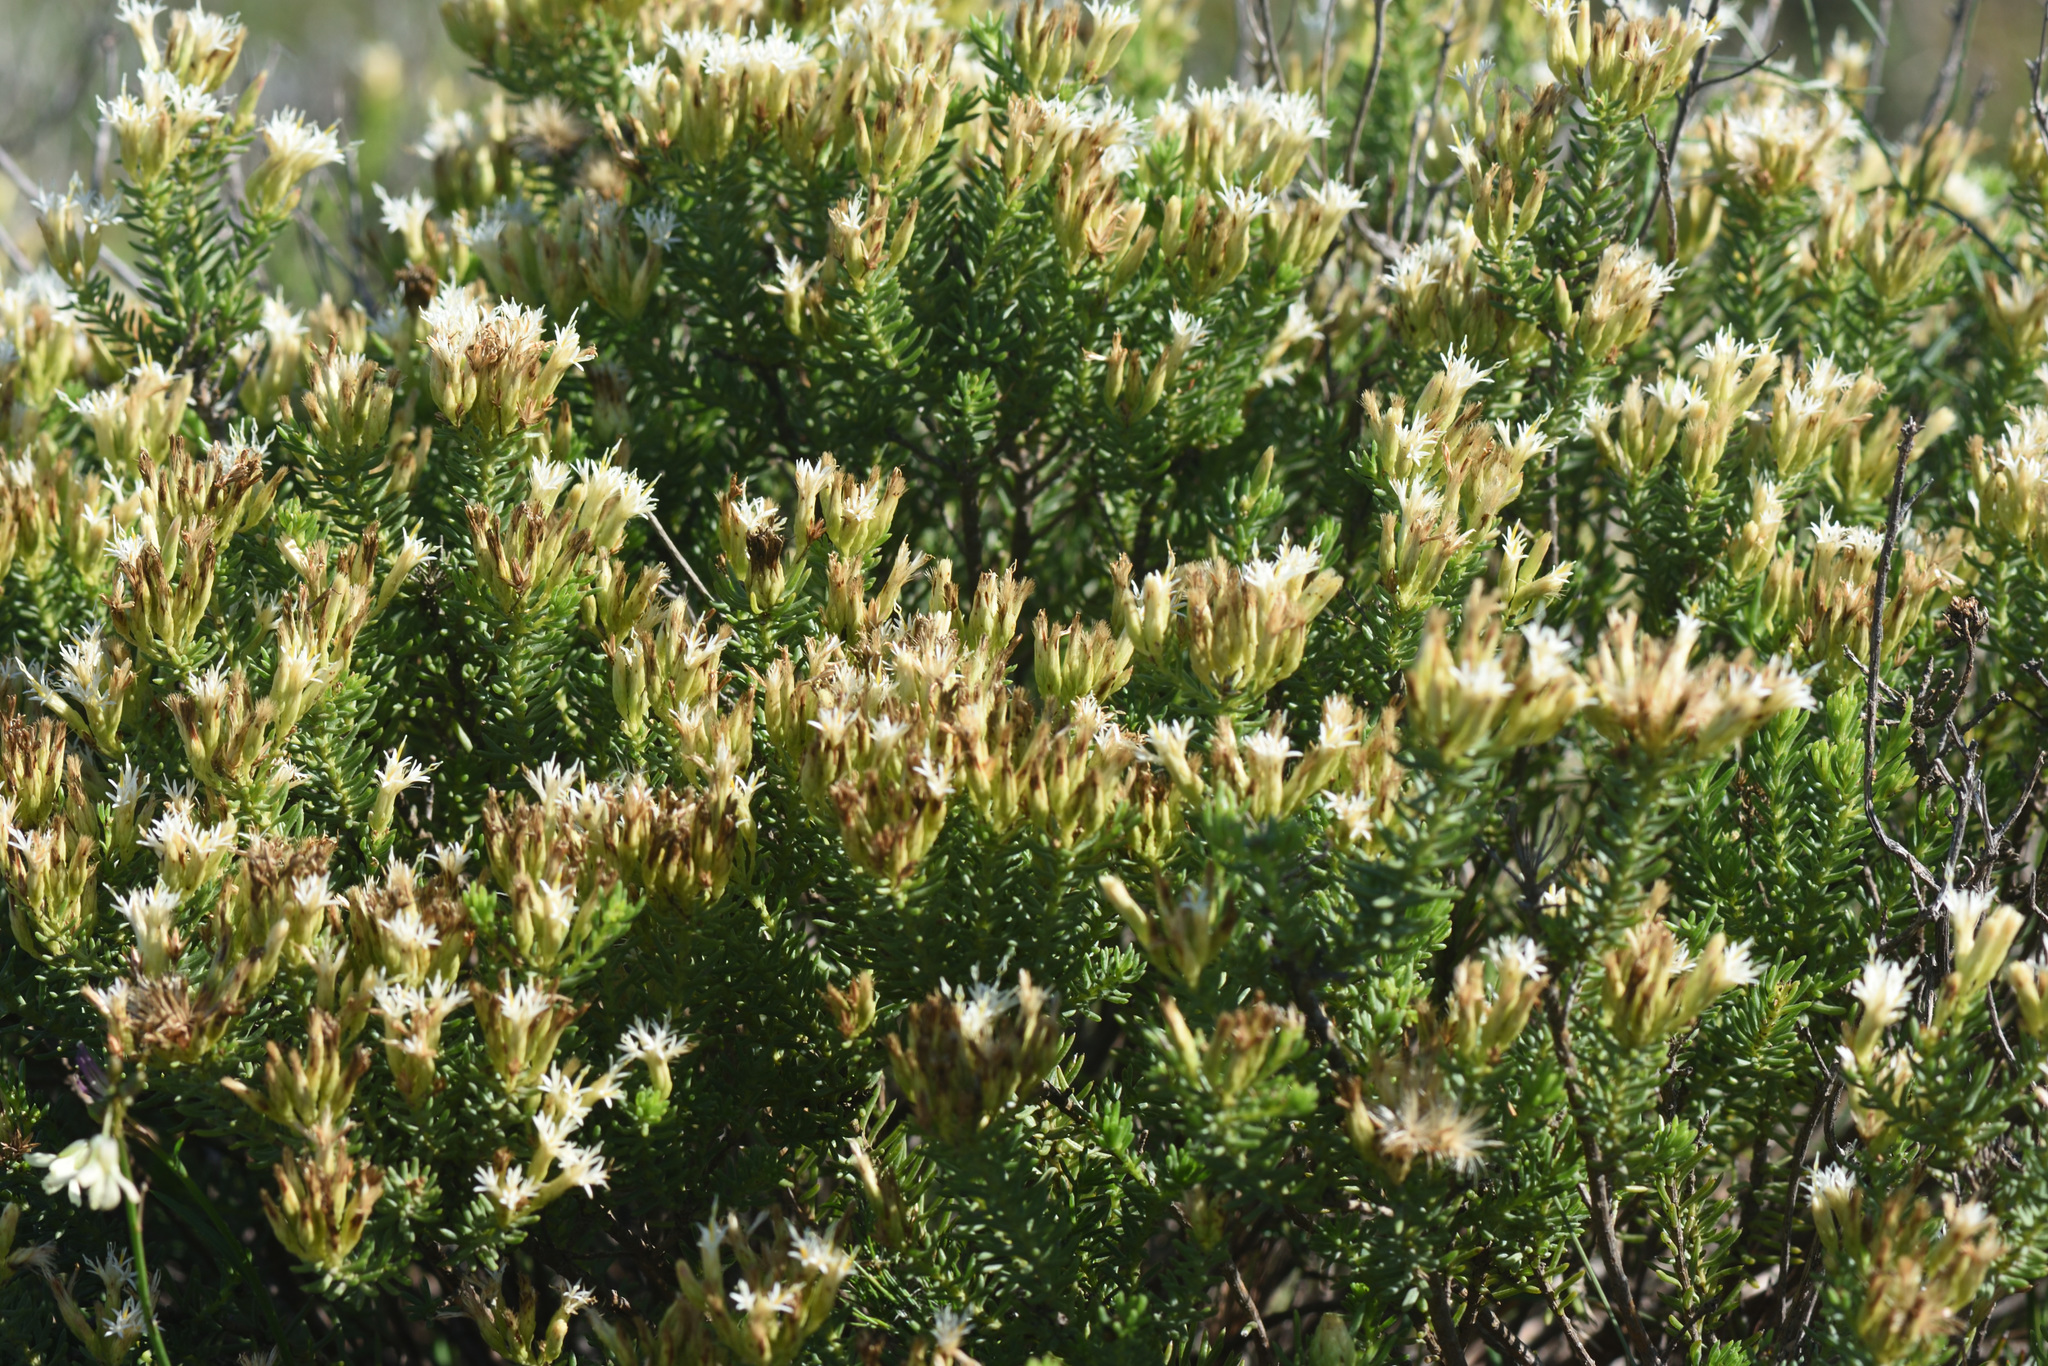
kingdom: Plantae
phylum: Tracheophyta
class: Magnoliopsida
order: Asterales
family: Asteraceae
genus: Pteronia
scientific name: Pteronia teretifolia
